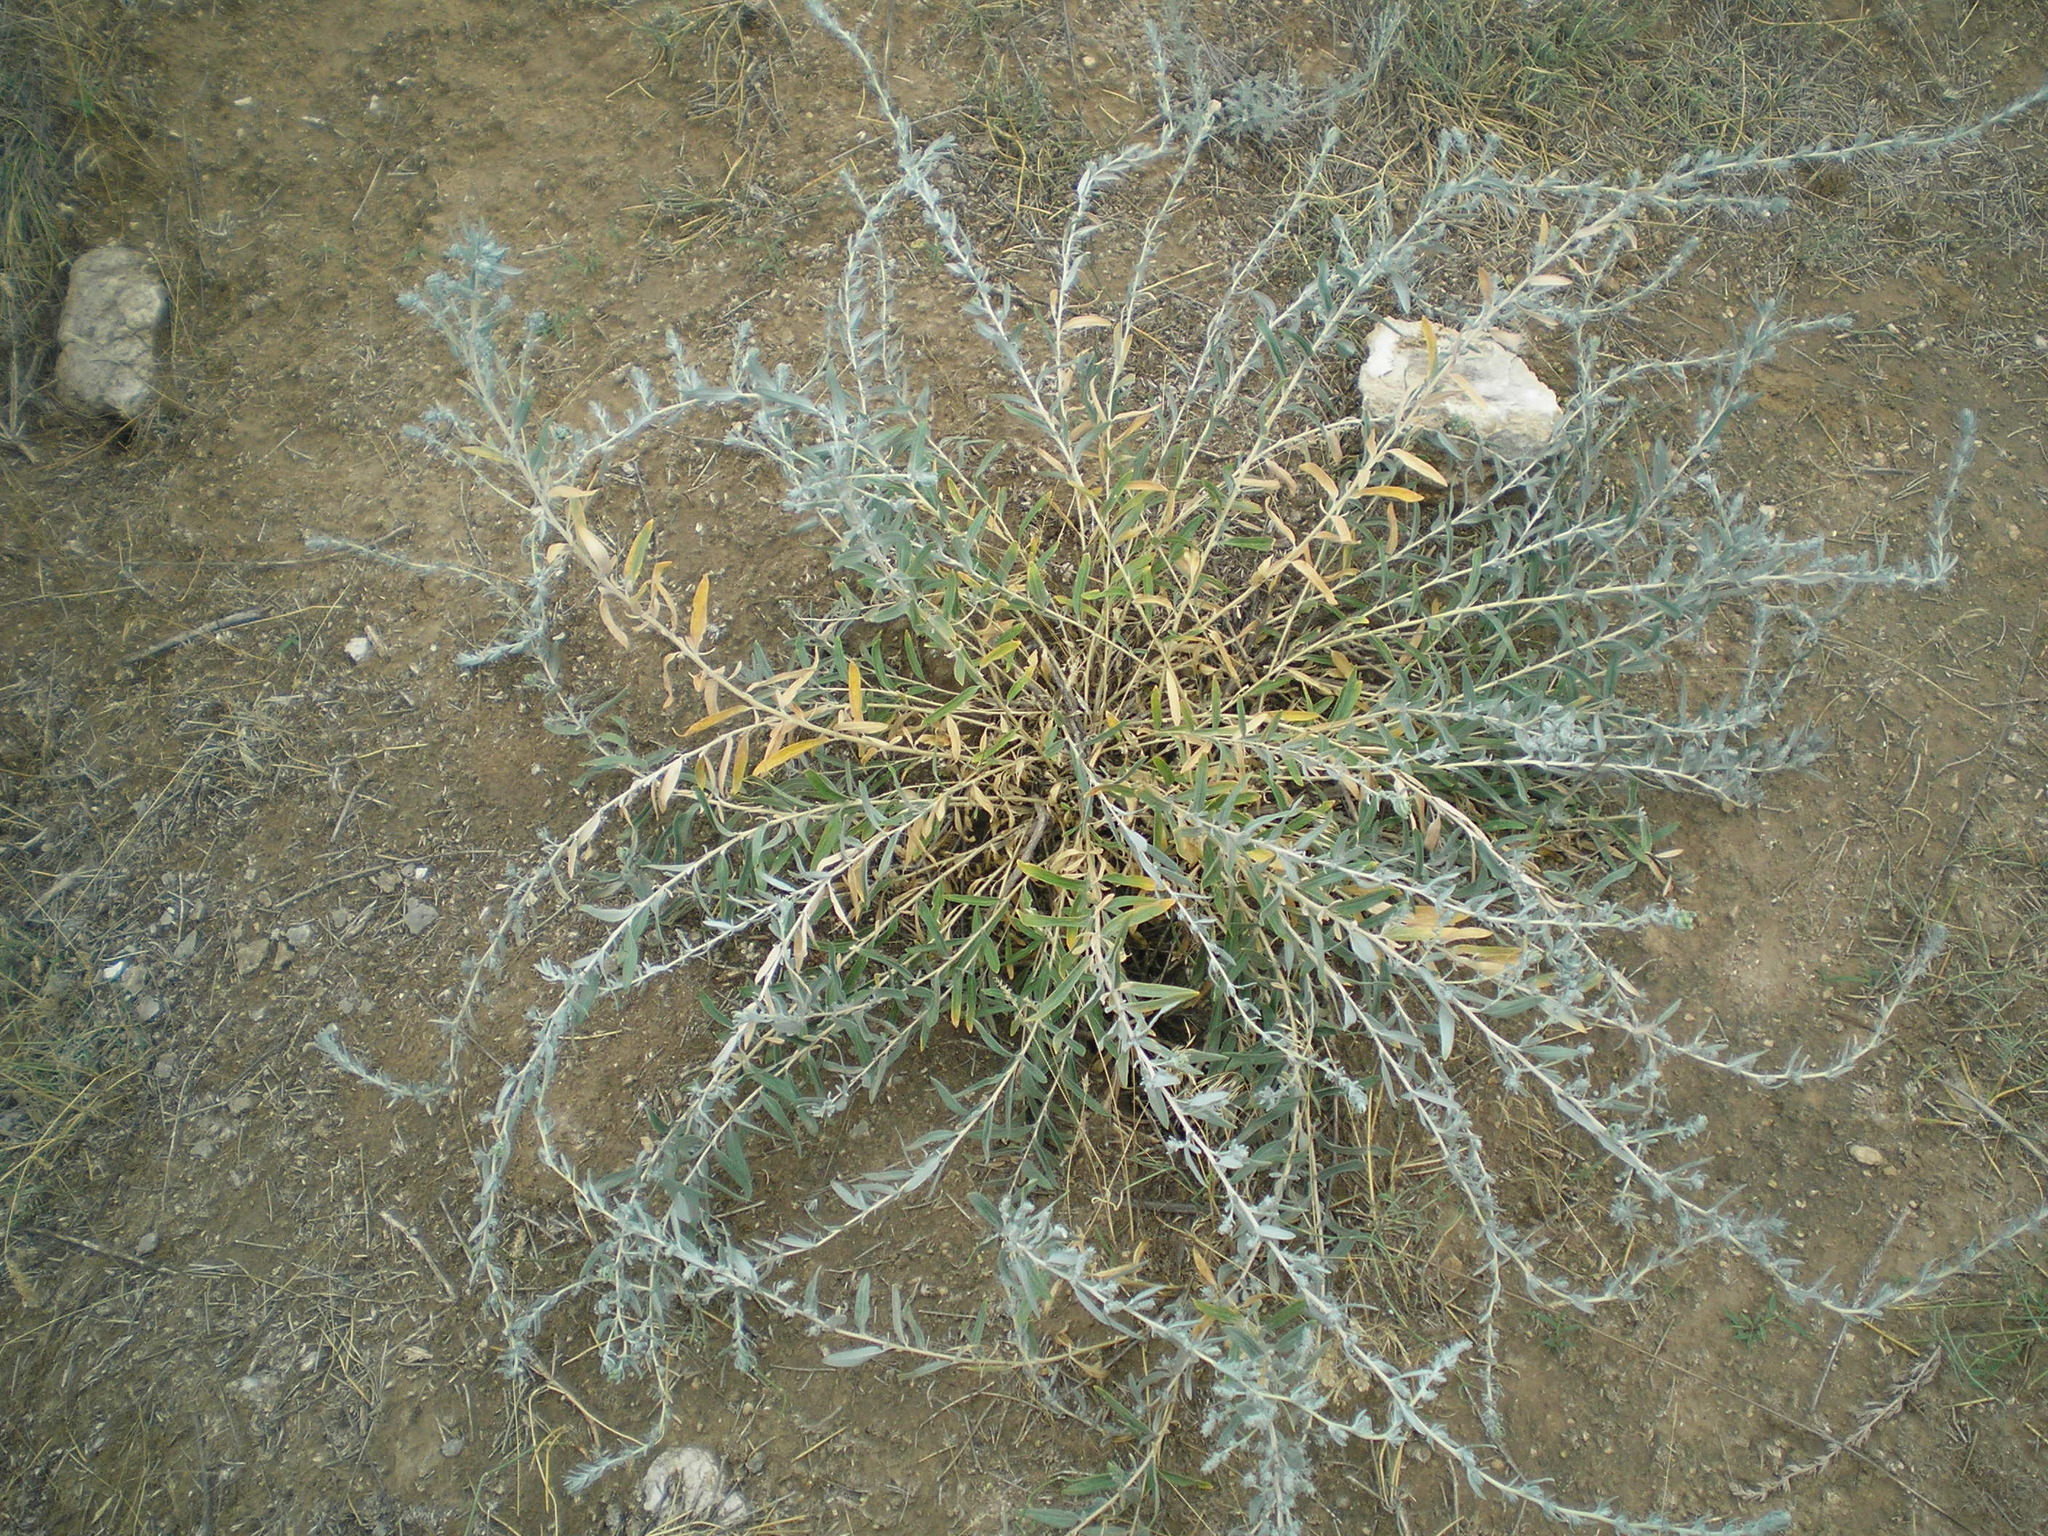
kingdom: Plantae
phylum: Tracheophyta
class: Magnoliopsida
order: Caryophyllales
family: Amaranthaceae
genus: Krascheninnikovia
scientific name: Krascheninnikovia ceratoides
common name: Pamirian winterfat
